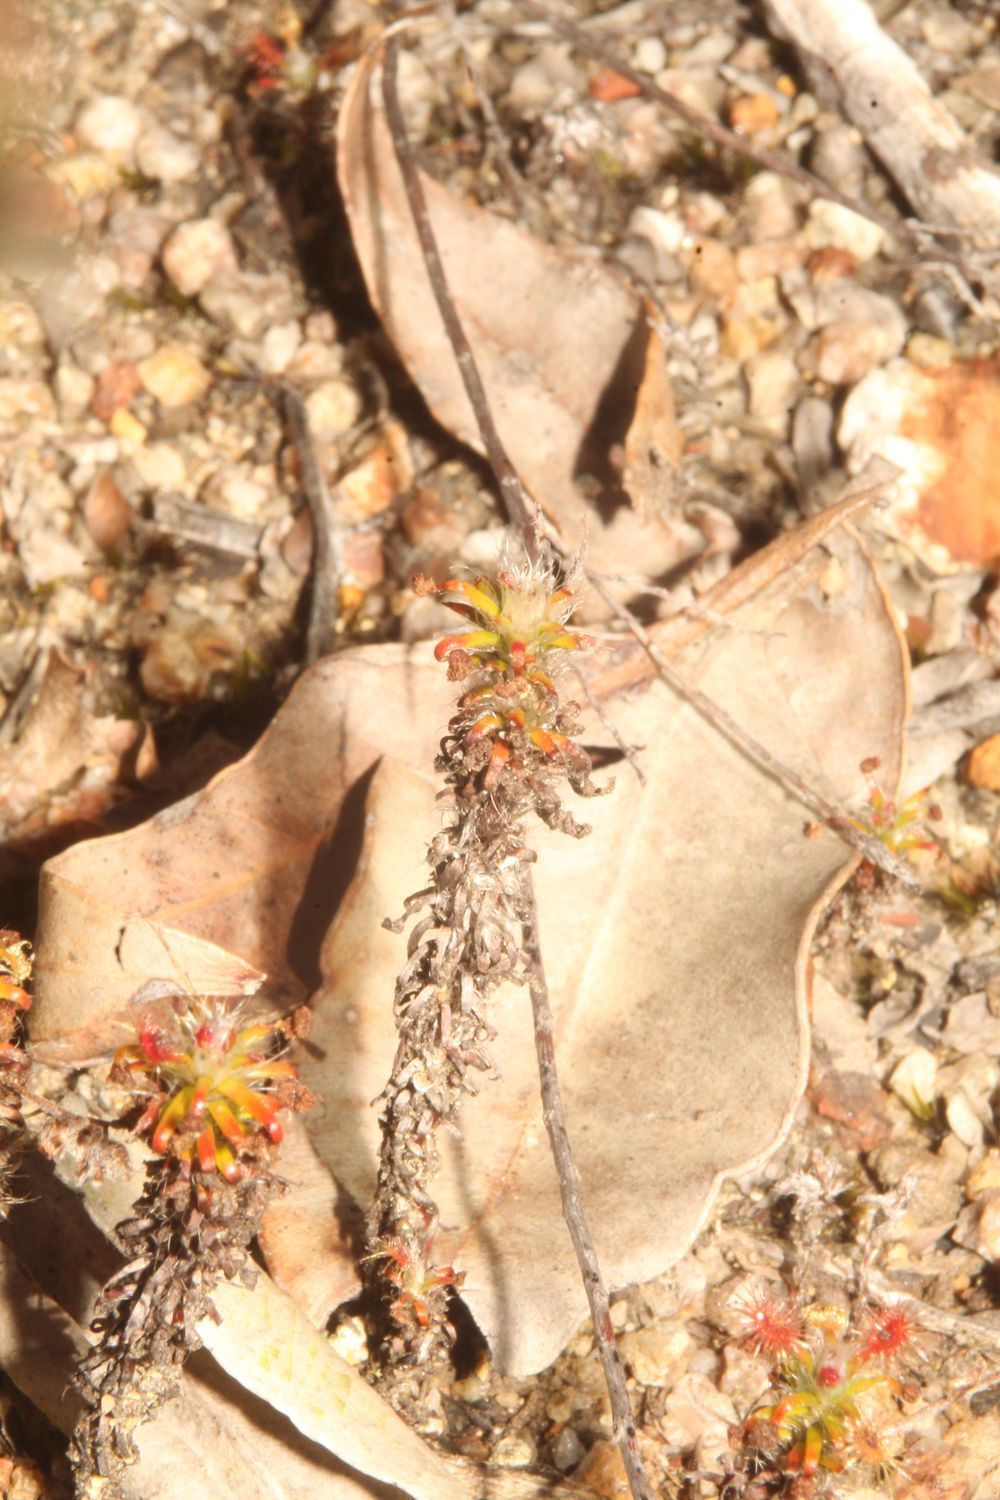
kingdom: Plantae
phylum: Tracheophyta
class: Magnoliopsida
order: Caryophyllales
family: Droseraceae
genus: Drosera
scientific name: Drosera lasiantha
